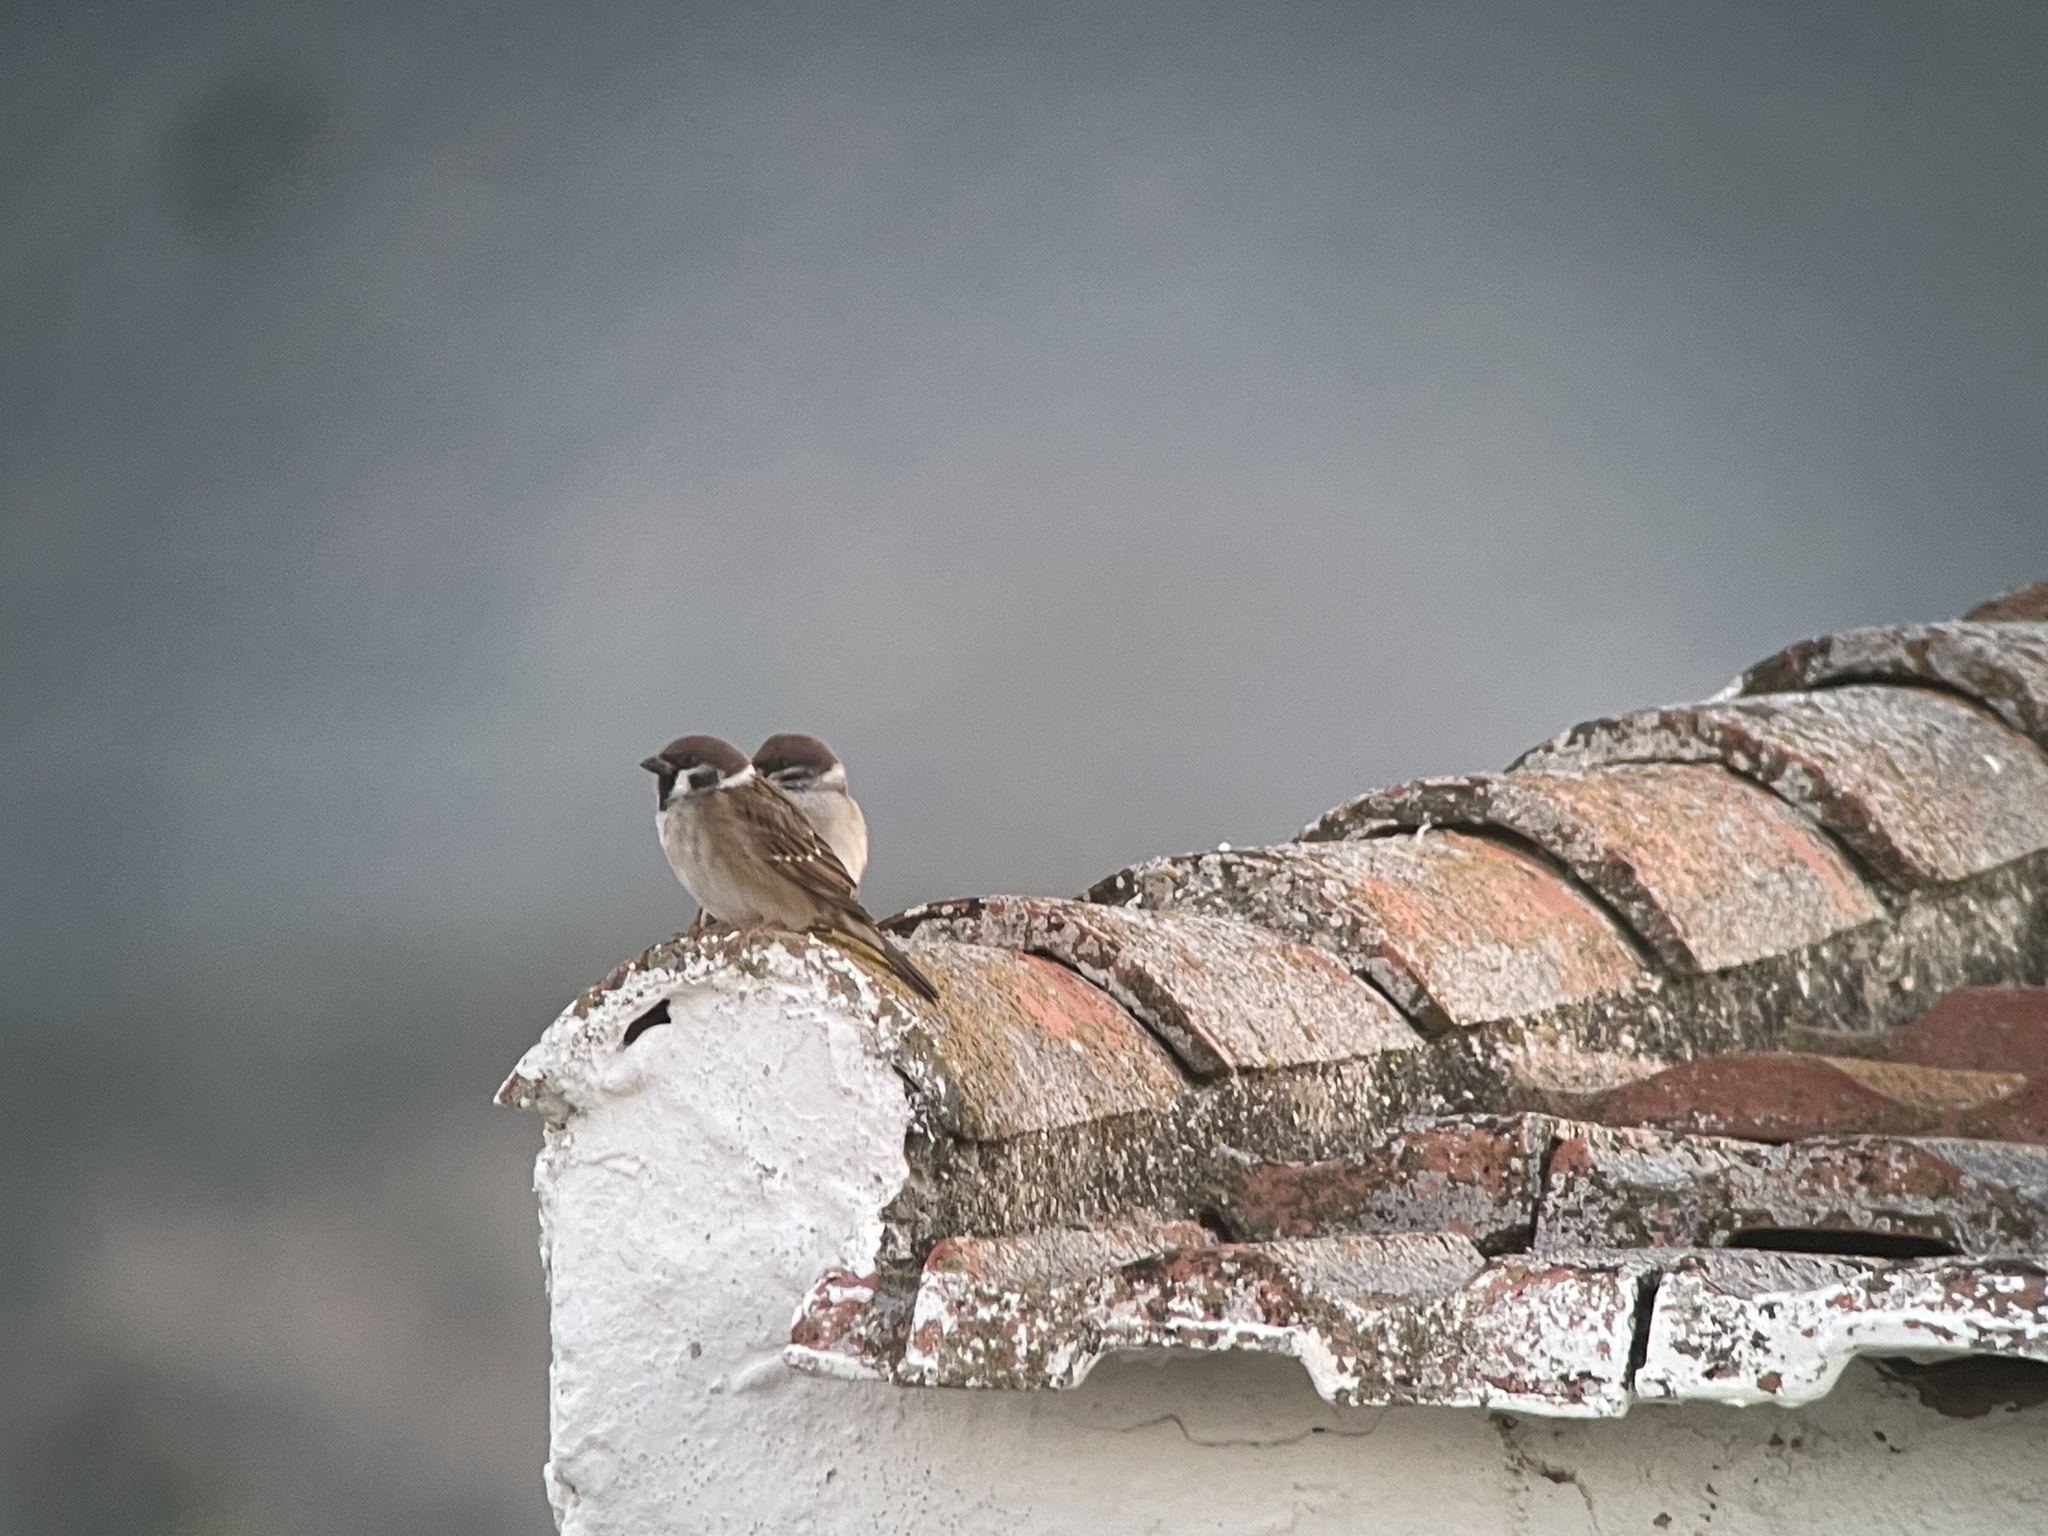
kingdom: Animalia
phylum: Chordata
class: Aves
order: Passeriformes
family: Passeridae
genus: Passer
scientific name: Passer montanus
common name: Eurasian tree sparrow
